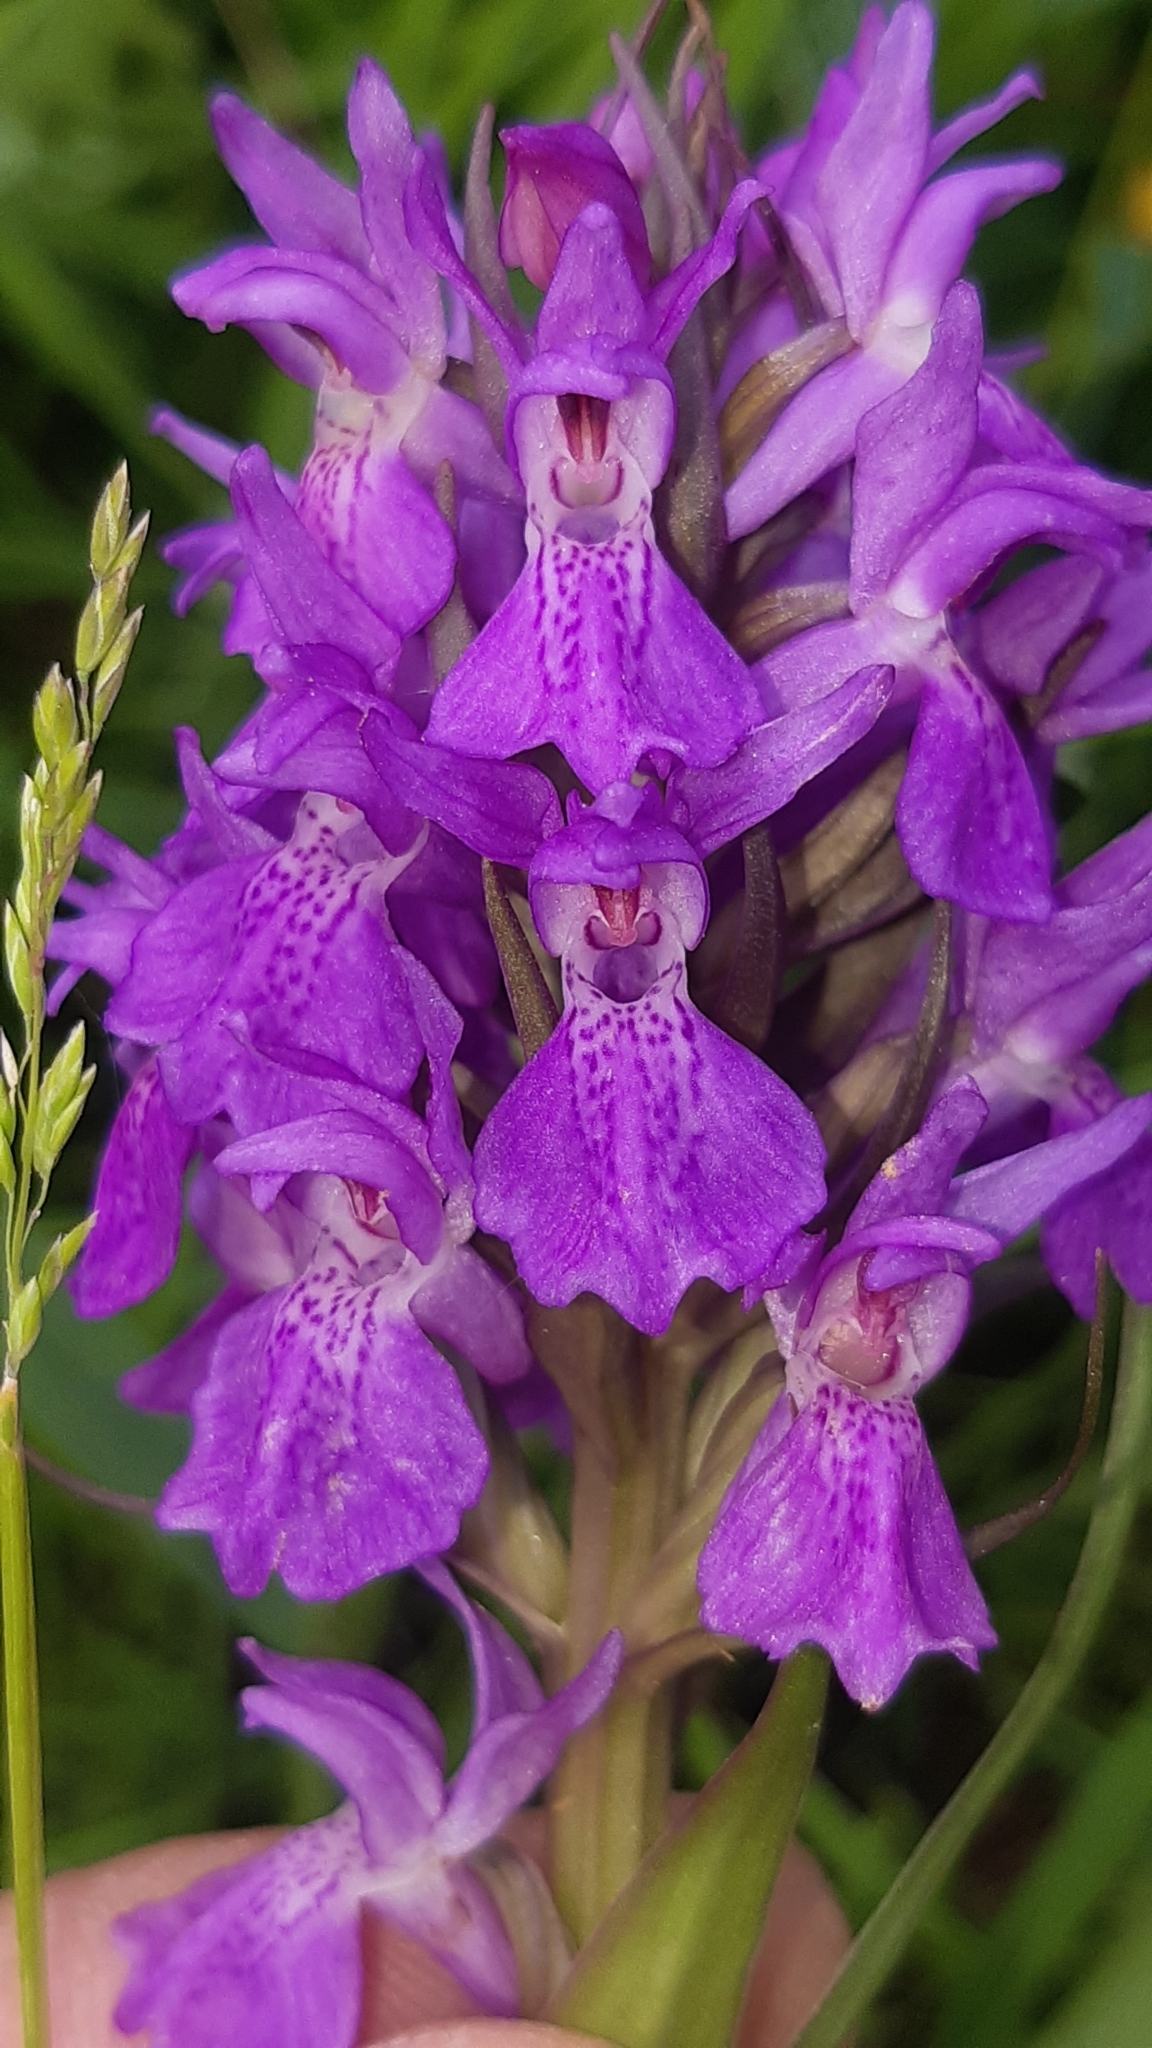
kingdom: Plantae
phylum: Tracheophyta
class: Liliopsida
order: Asparagales
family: Orchidaceae
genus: Dactylorhiza
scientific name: Dactylorhiza majalis
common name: Marsh orchid
